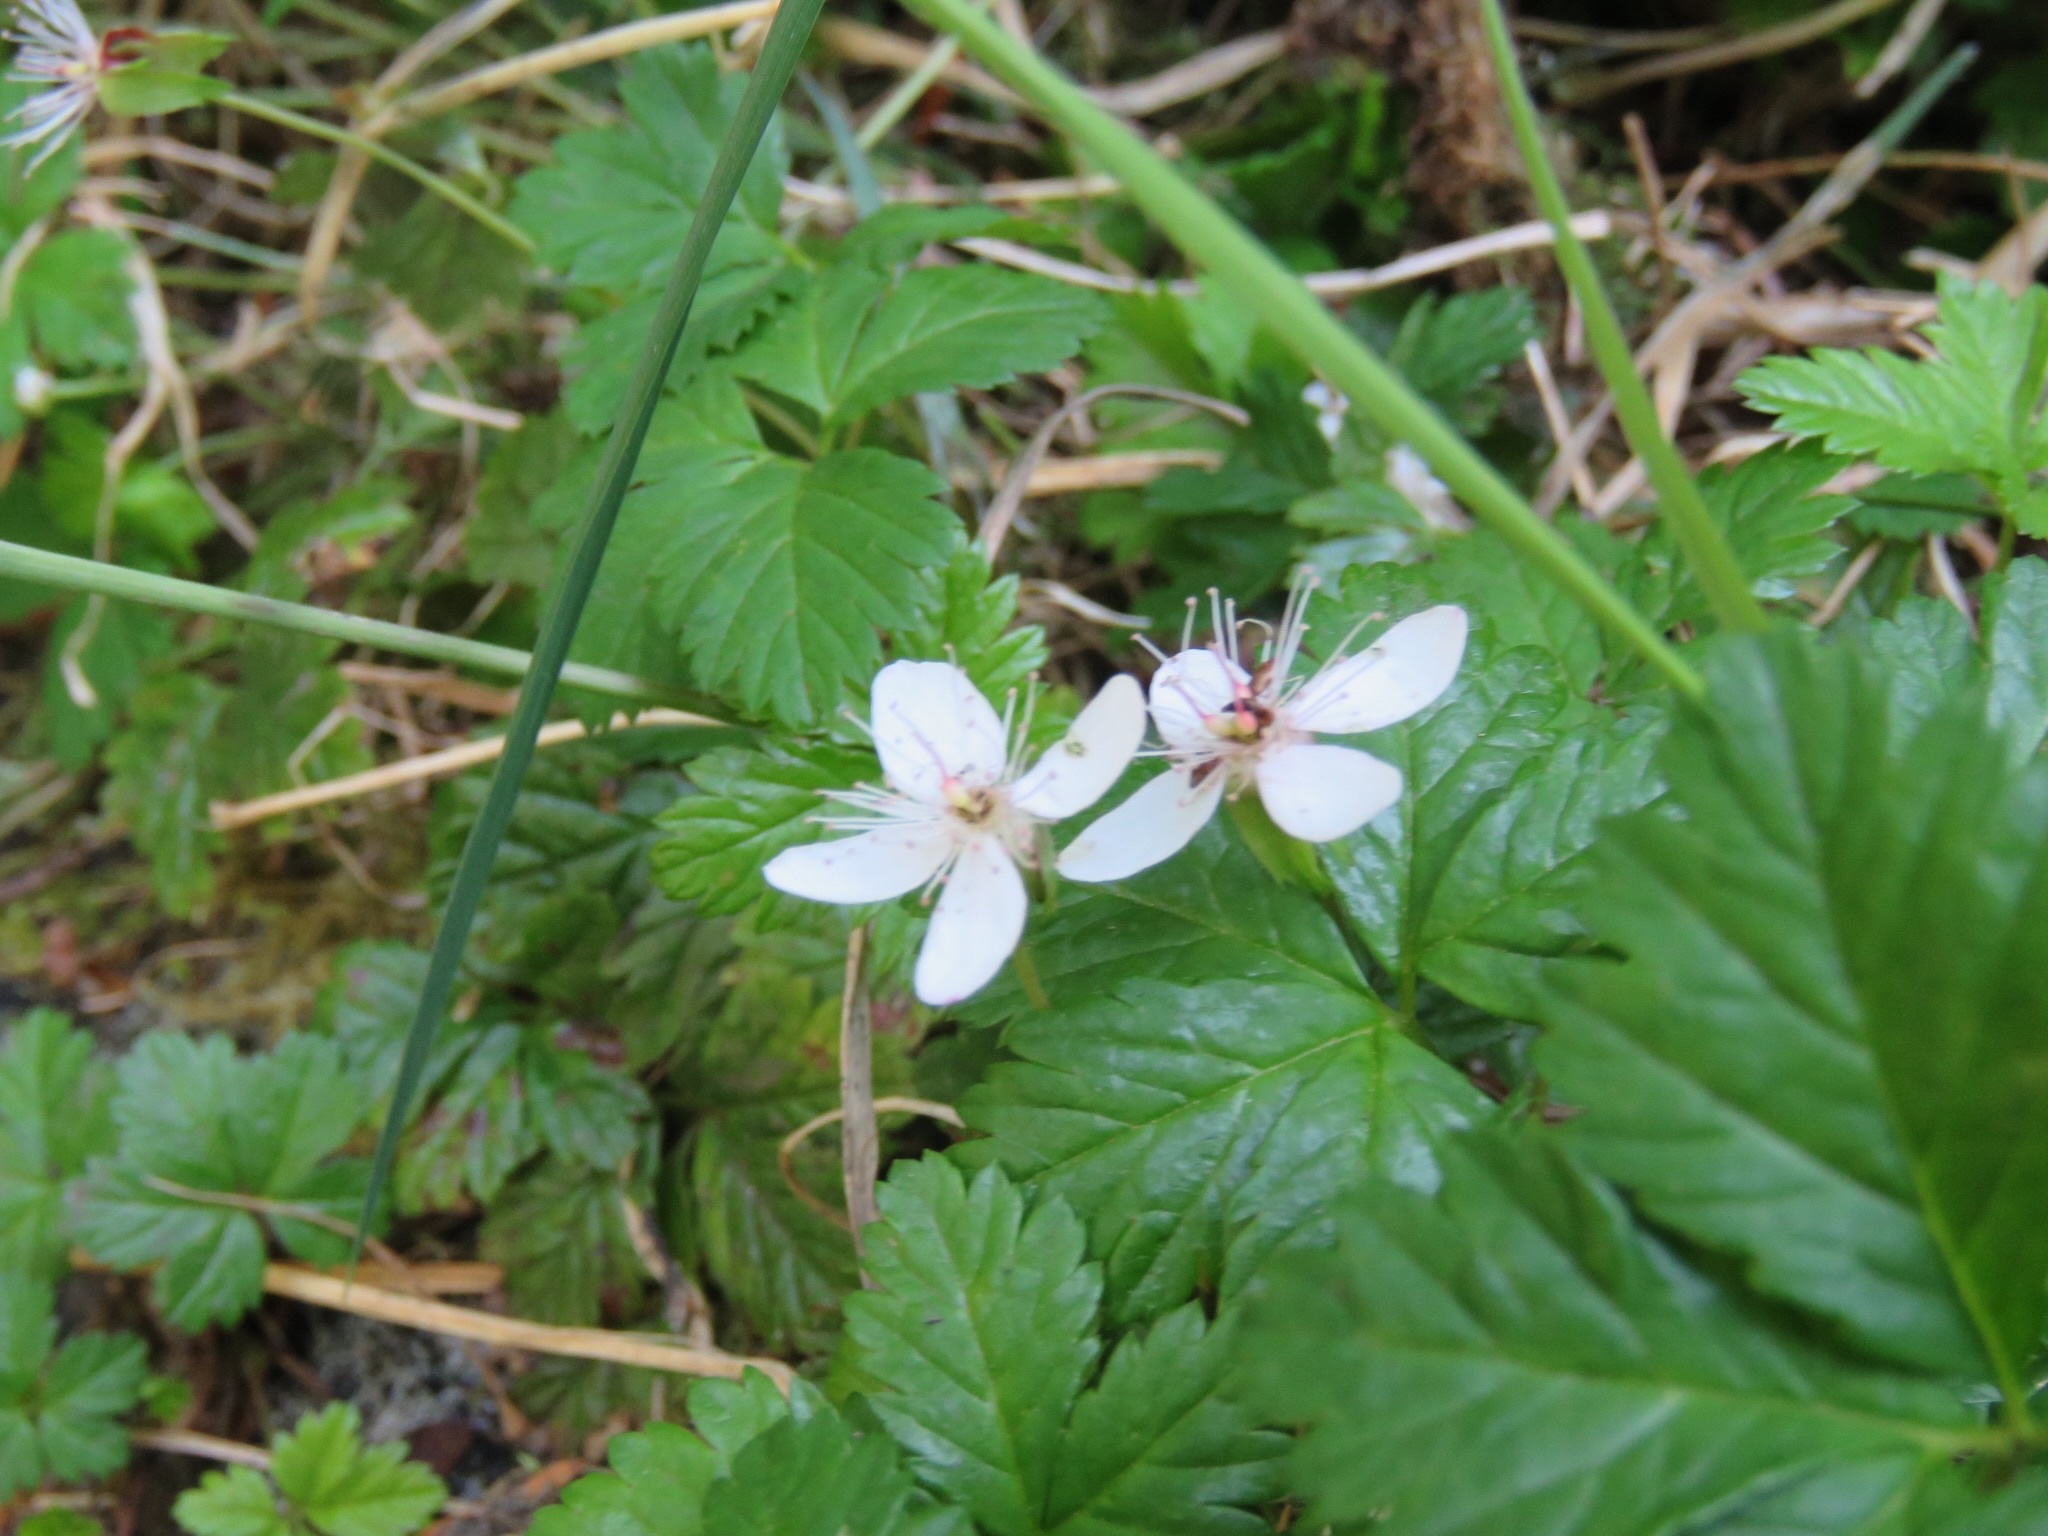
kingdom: Plantae
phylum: Tracheophyta
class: Magnoliopsida
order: Rosales
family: Rosaceae
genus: Rubus
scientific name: Rubus pedatus
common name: Creeping raspberry
